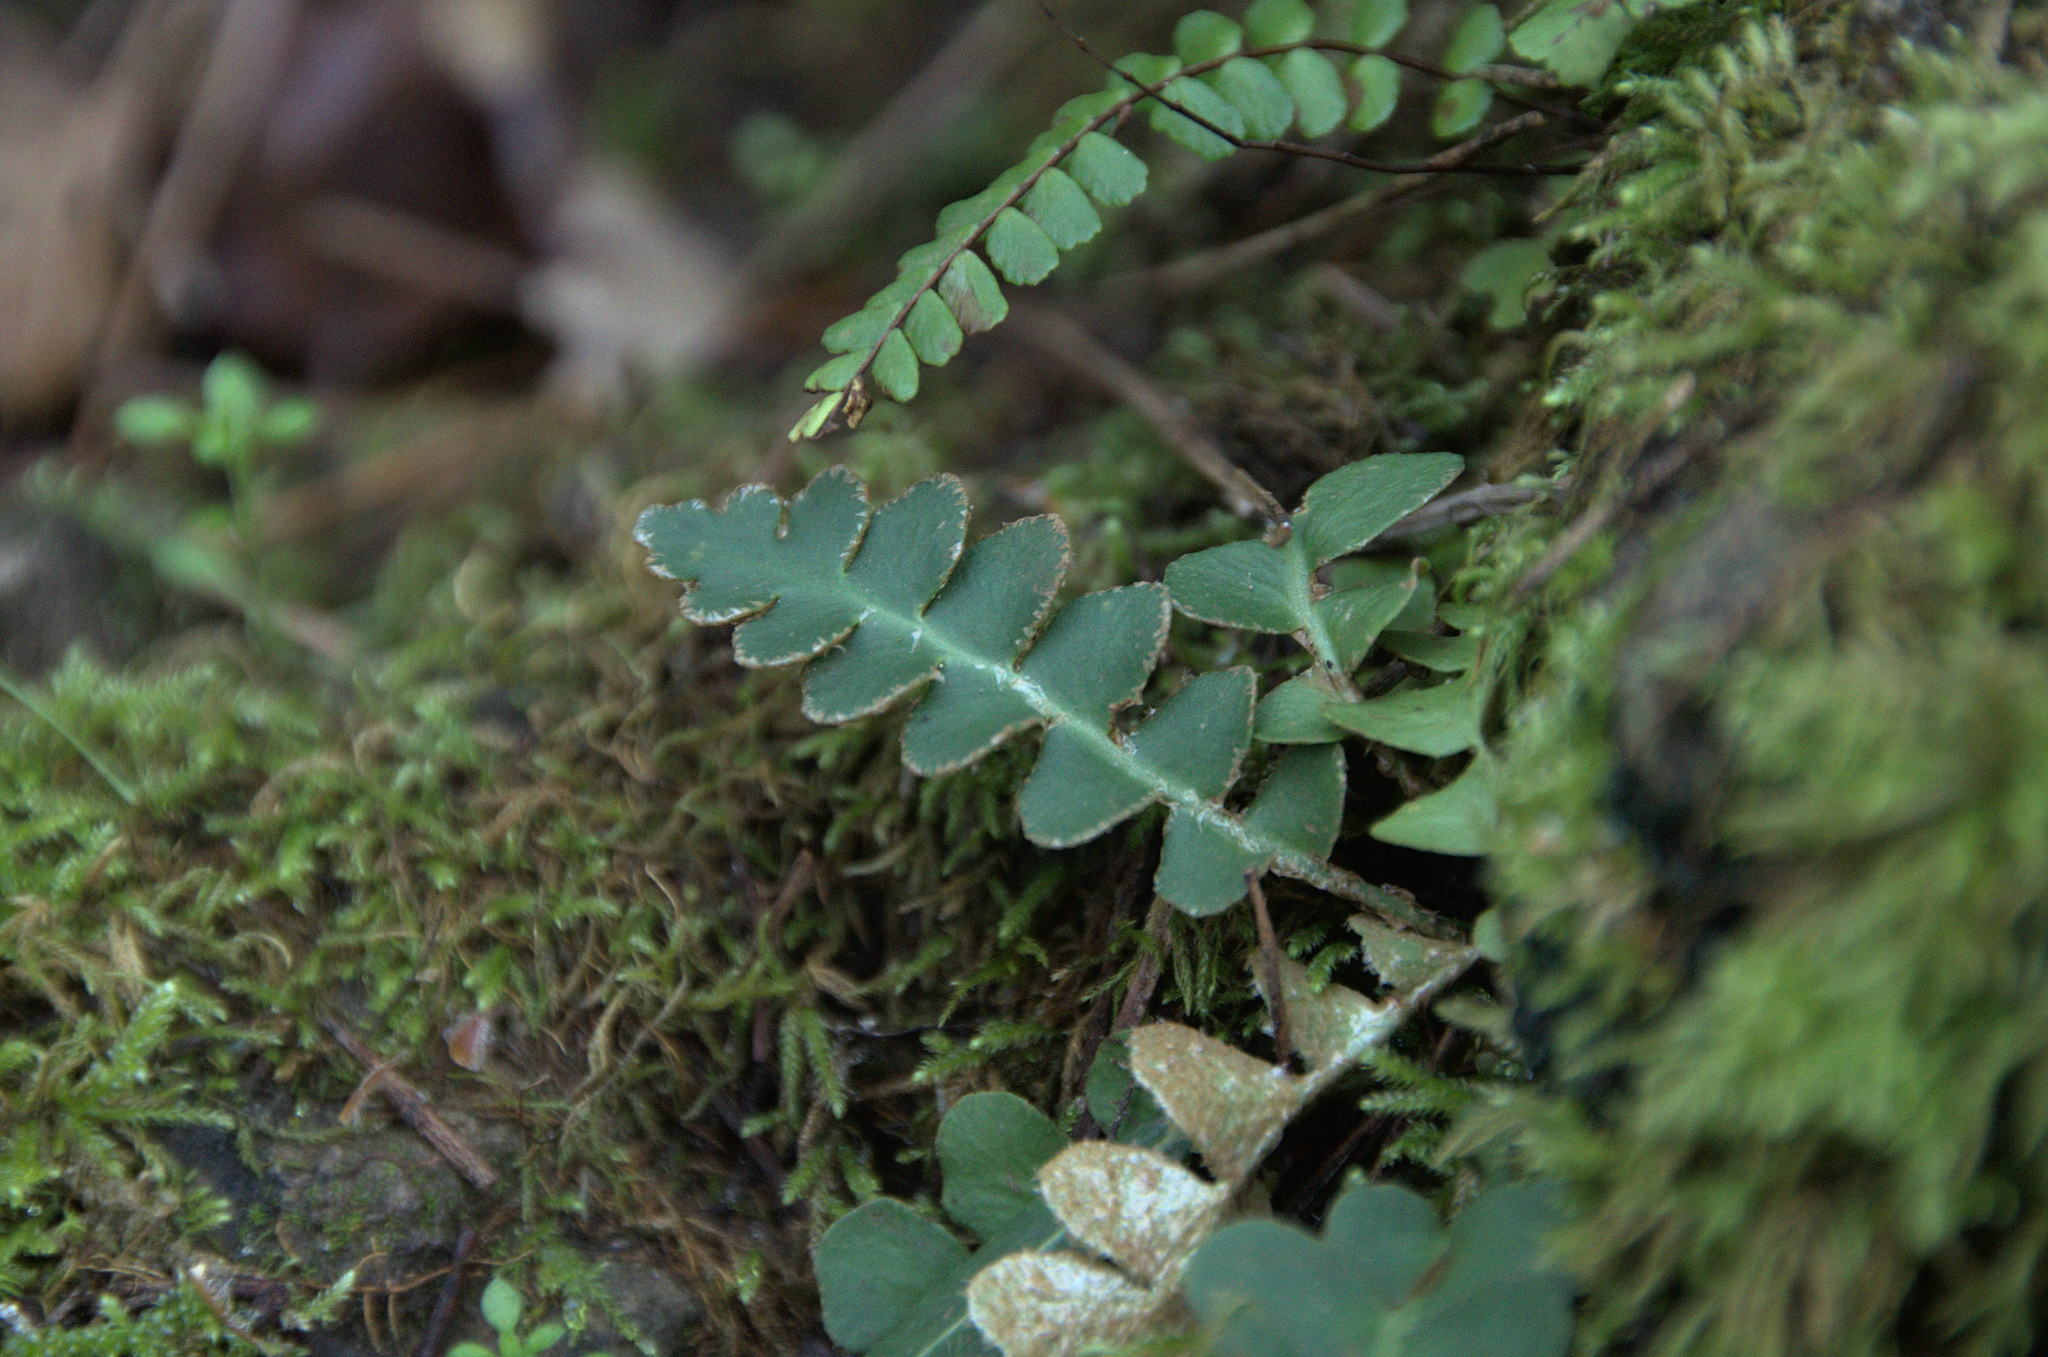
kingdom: Plantae
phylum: Tracheophyta
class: Polypodiopsida
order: Polypodiales
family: Aspleniaceae
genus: Asplenium
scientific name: Asplenium ceterach
